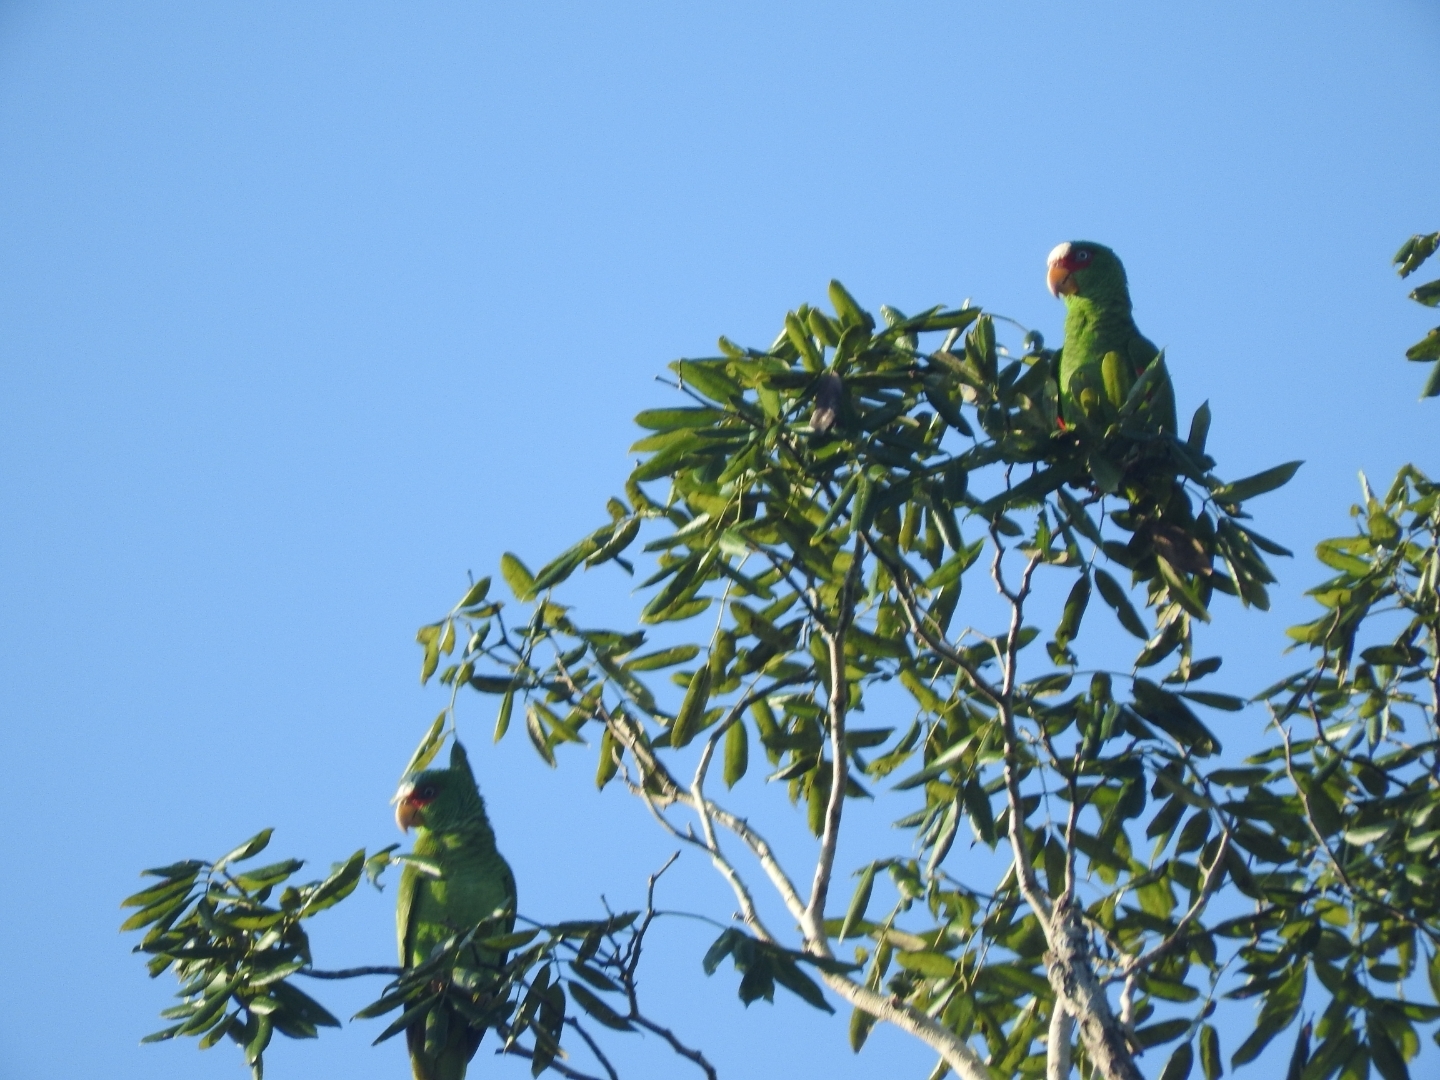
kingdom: Animalia
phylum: Chordata
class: Aves
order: Psittaciformes
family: Psittacidae
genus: Amazona
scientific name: Amazona albifrons
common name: White-fronted amazon
